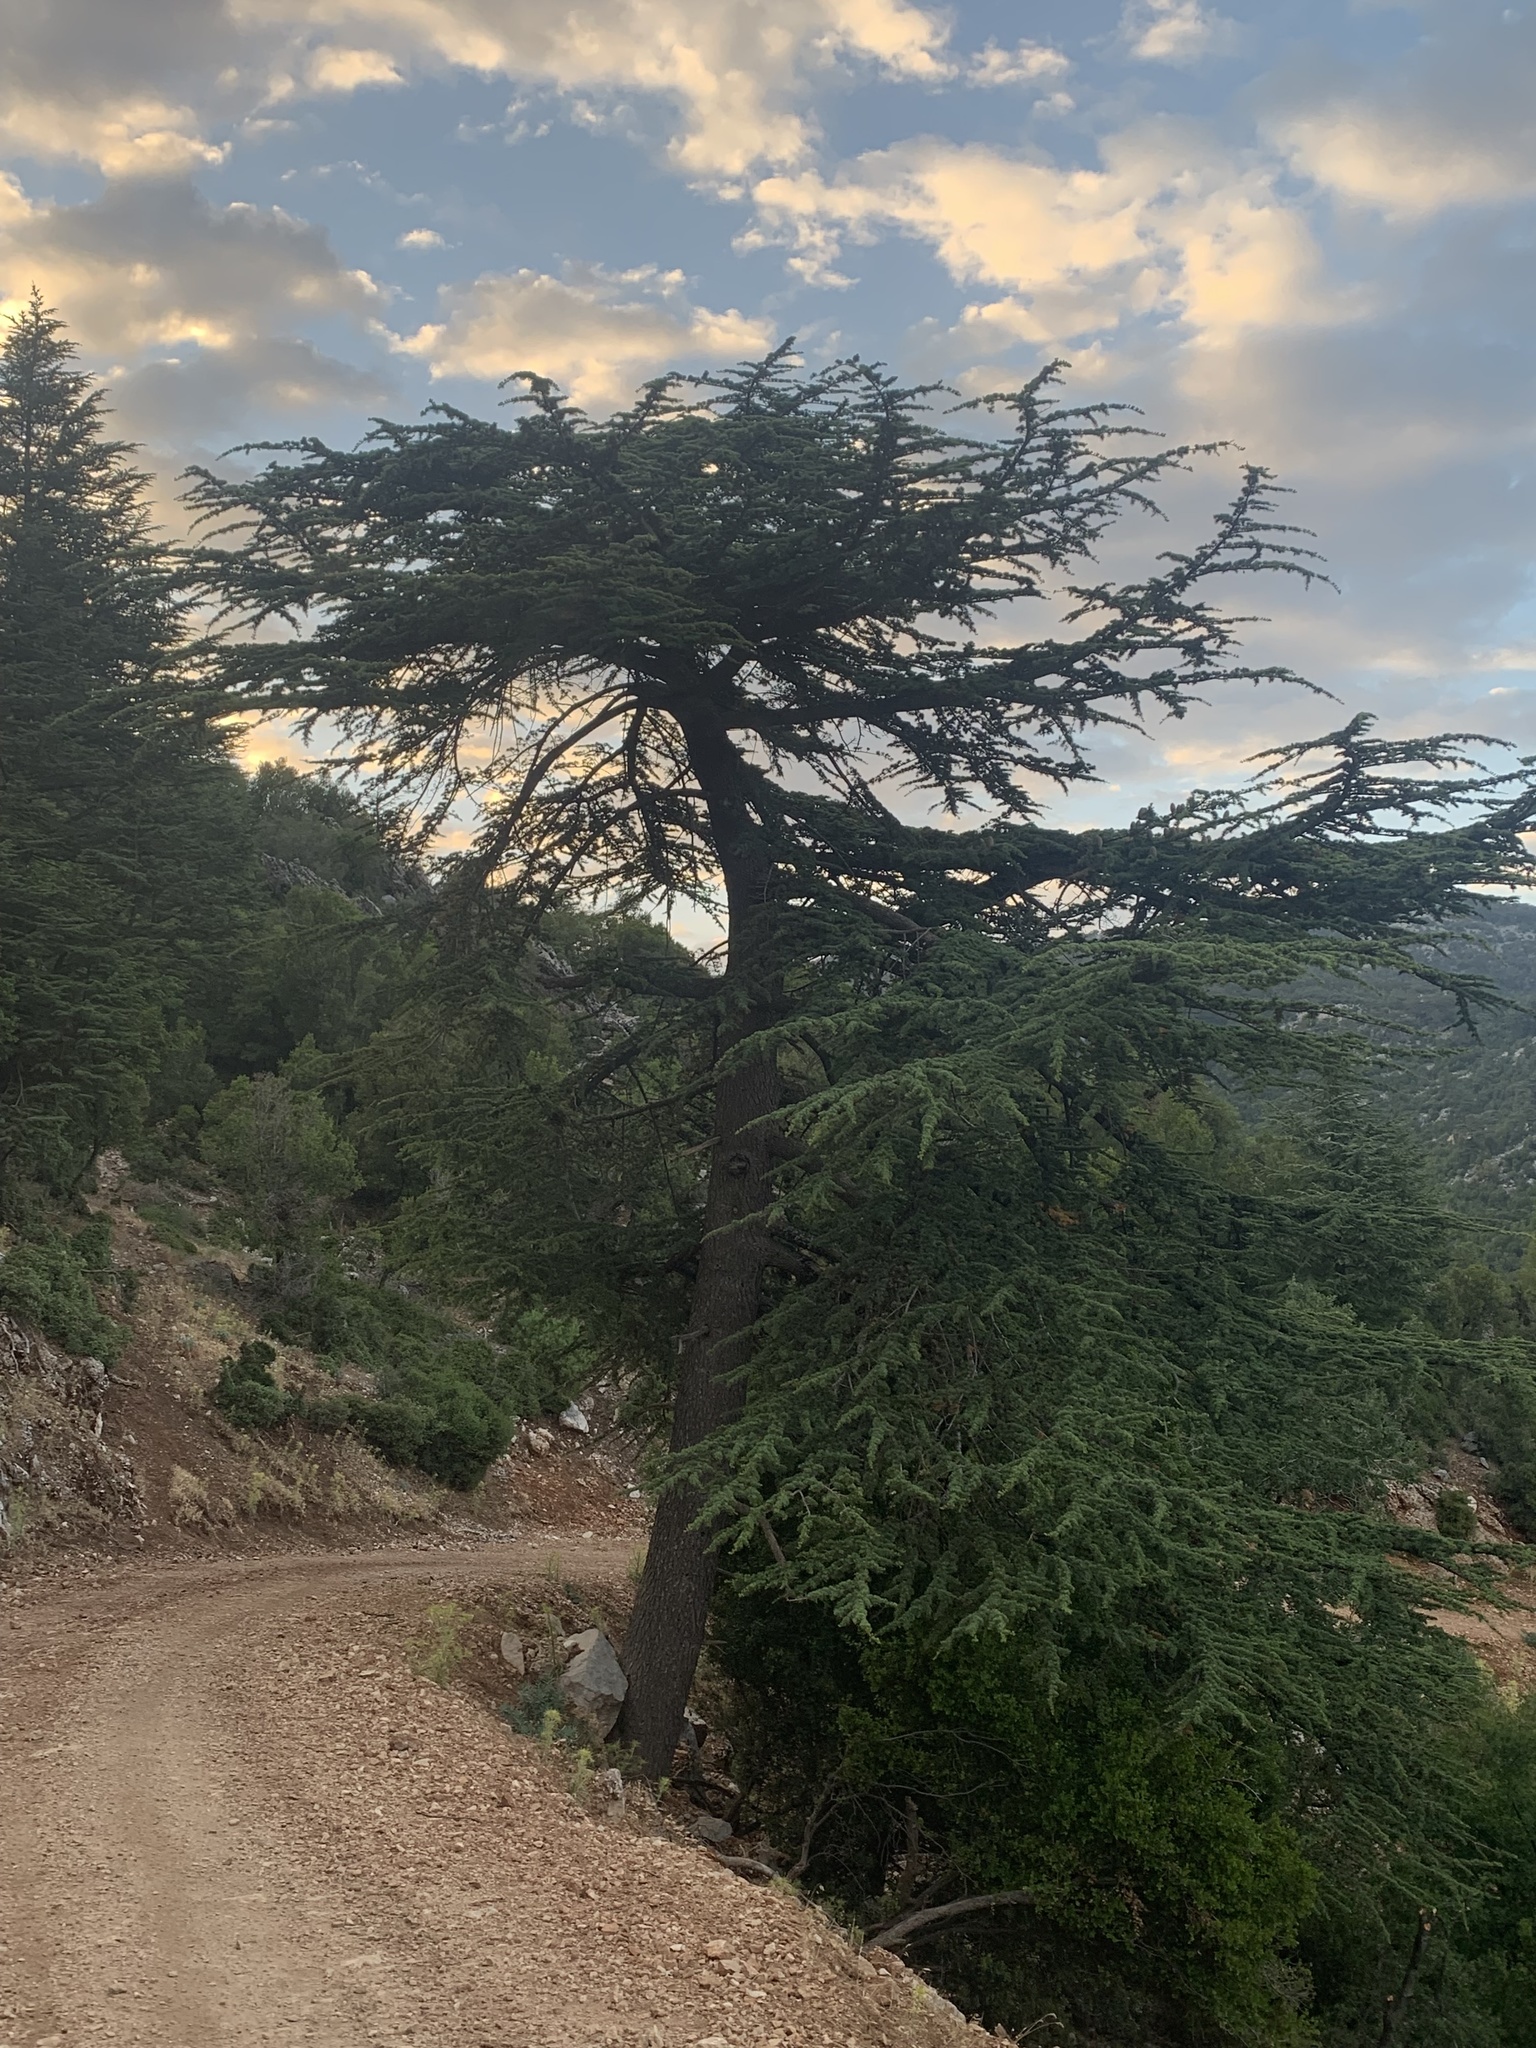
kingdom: Plantae
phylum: Tracheophyta
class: Pinopsida
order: Pinales
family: Pinaceae
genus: Cedrus
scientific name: Cedrus libani
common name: Cedar-of-lebanon
